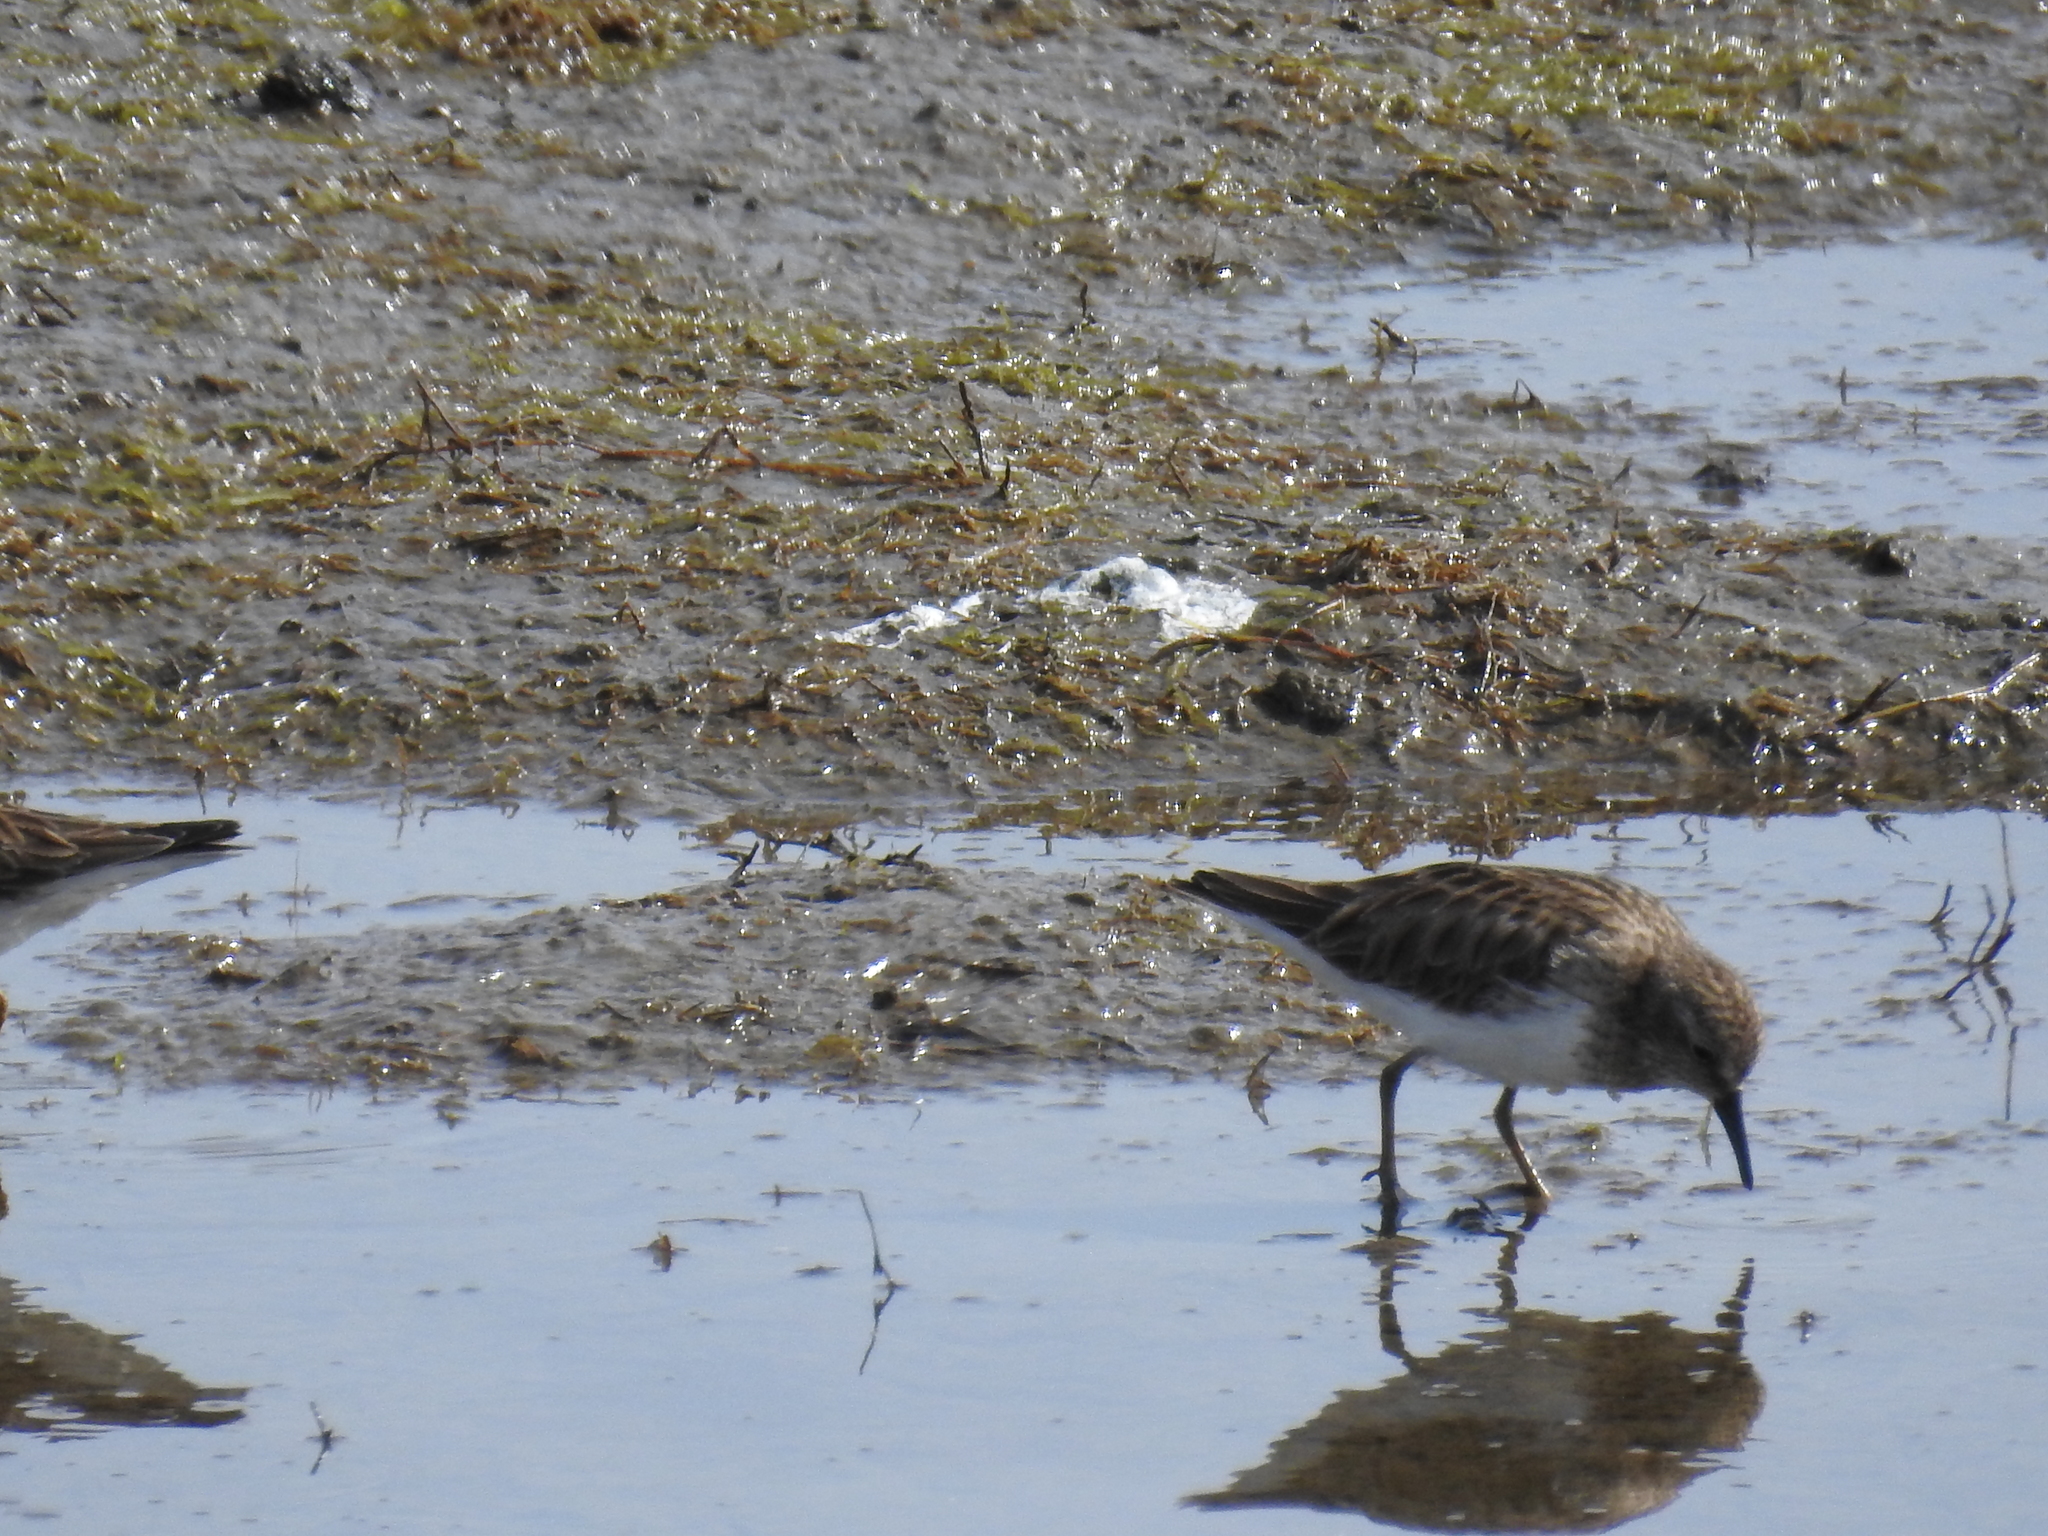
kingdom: Animalia
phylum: Chordata
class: Aves
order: Charadriiformes
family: Scolopacidae
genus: Calidris
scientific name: Calidris minutilla
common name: Least sandpiper
